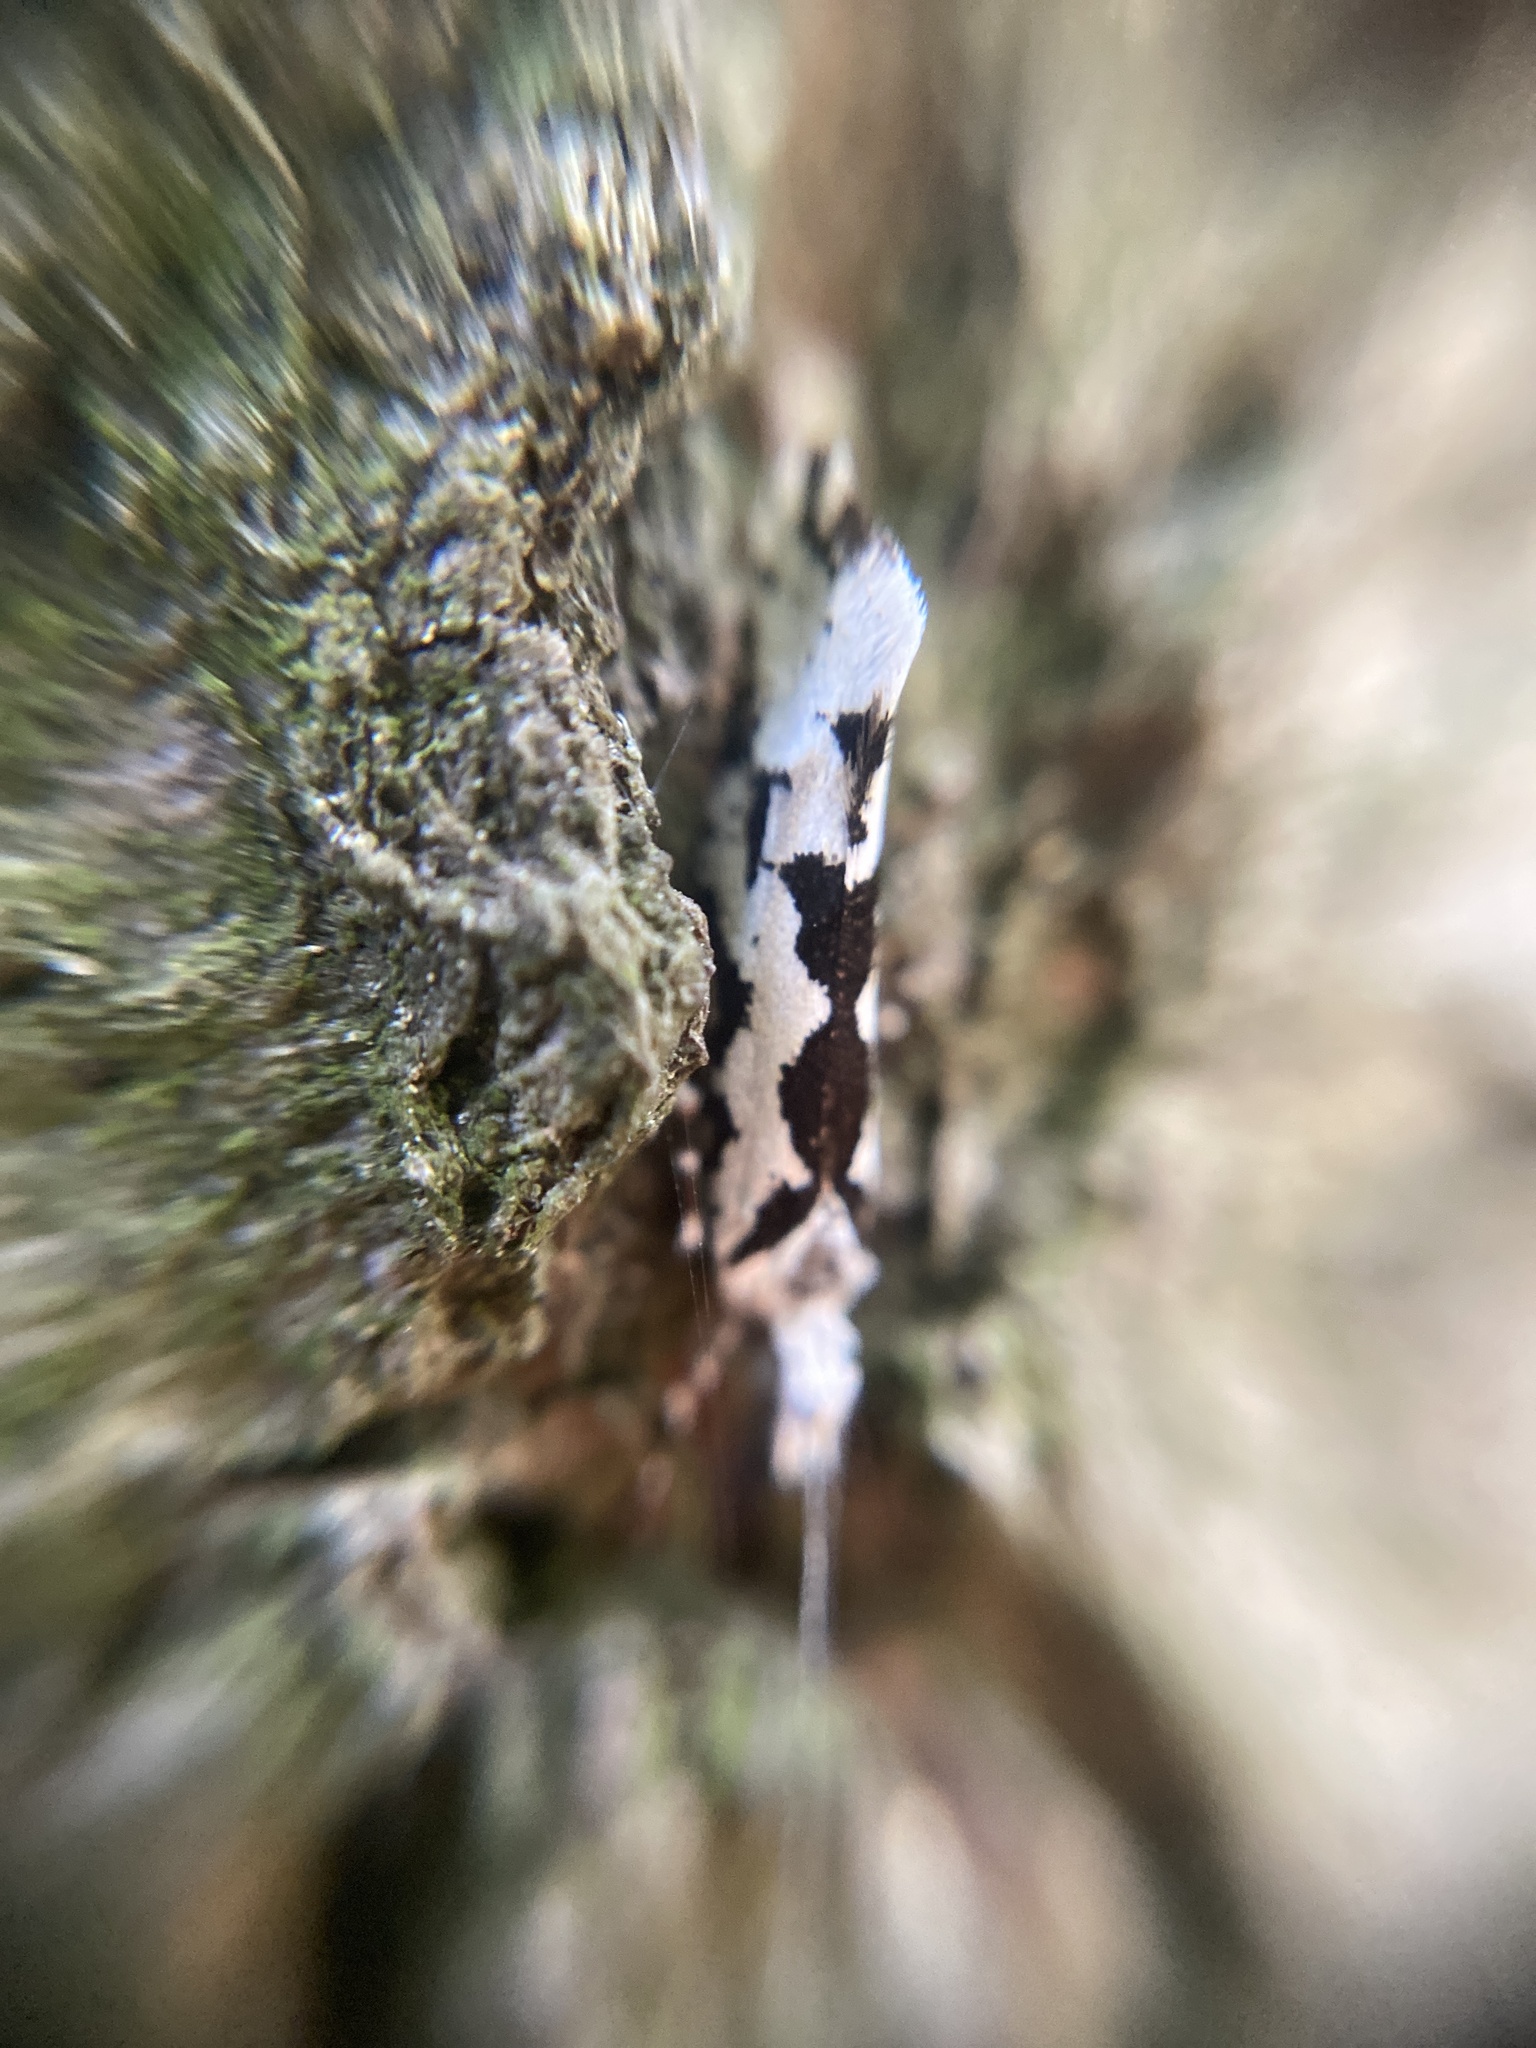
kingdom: Animalia
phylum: Arthropoda
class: Insecta
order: Lepidoptera
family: Plutellidae
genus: Ypsolophus
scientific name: Ypsolophus sequella
